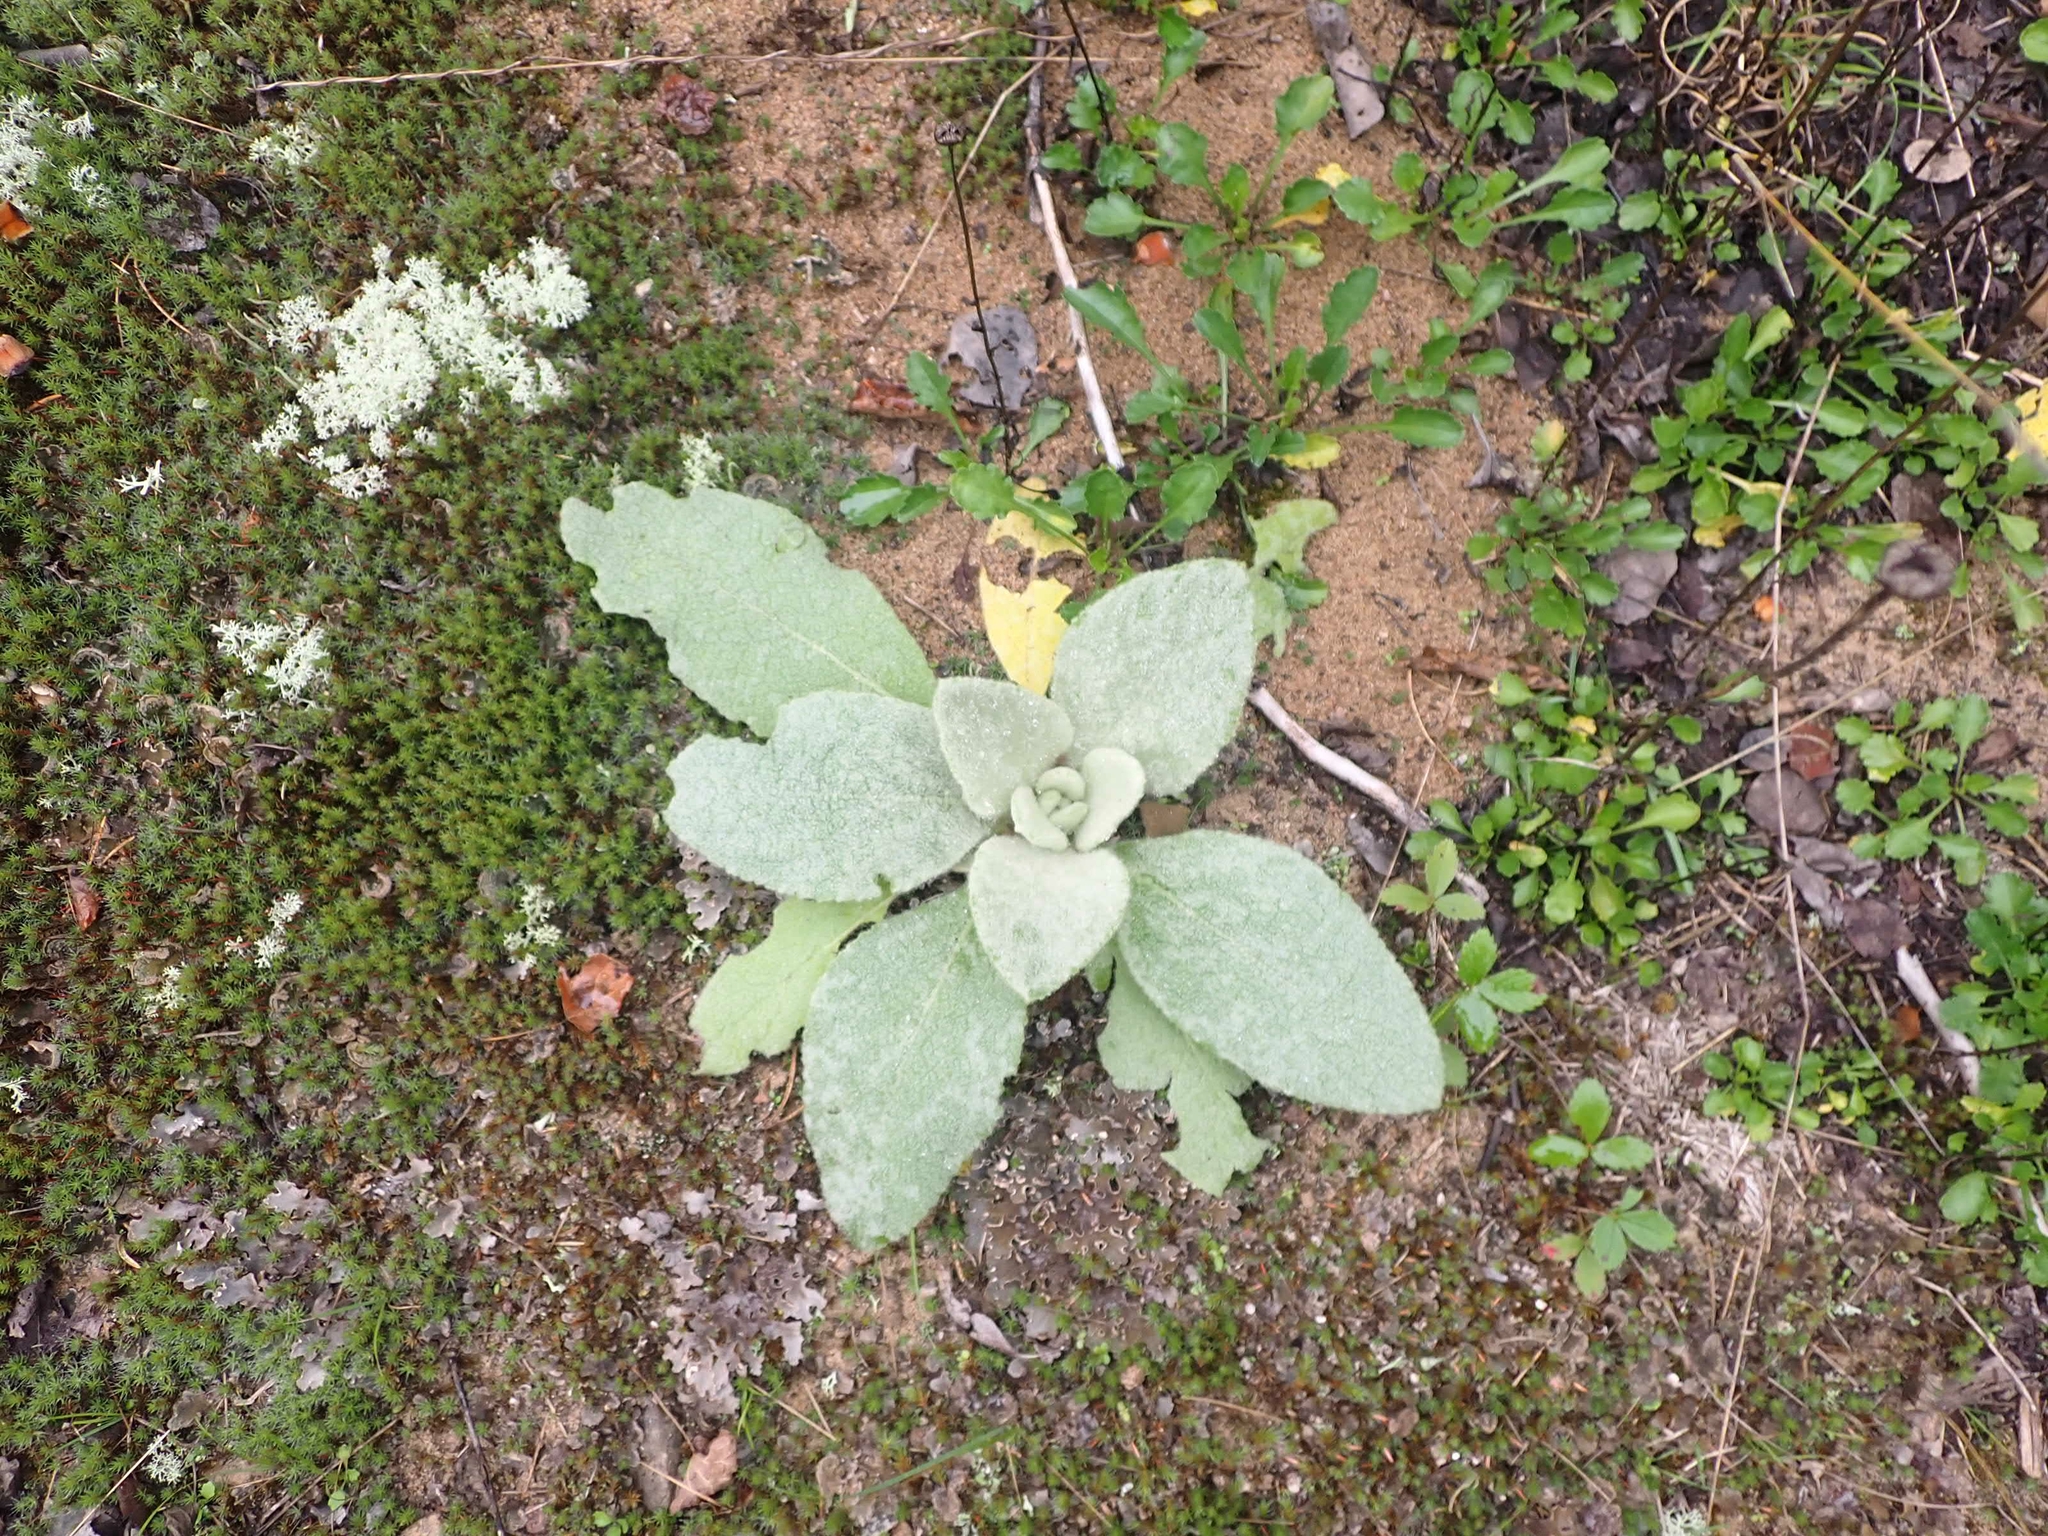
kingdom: Plantae
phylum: Tracheophyta
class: Magnoliopsida
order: Lamiales
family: Scrophulariaceae
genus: Verbascum
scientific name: Verbascum thapsus
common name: Common mullein
